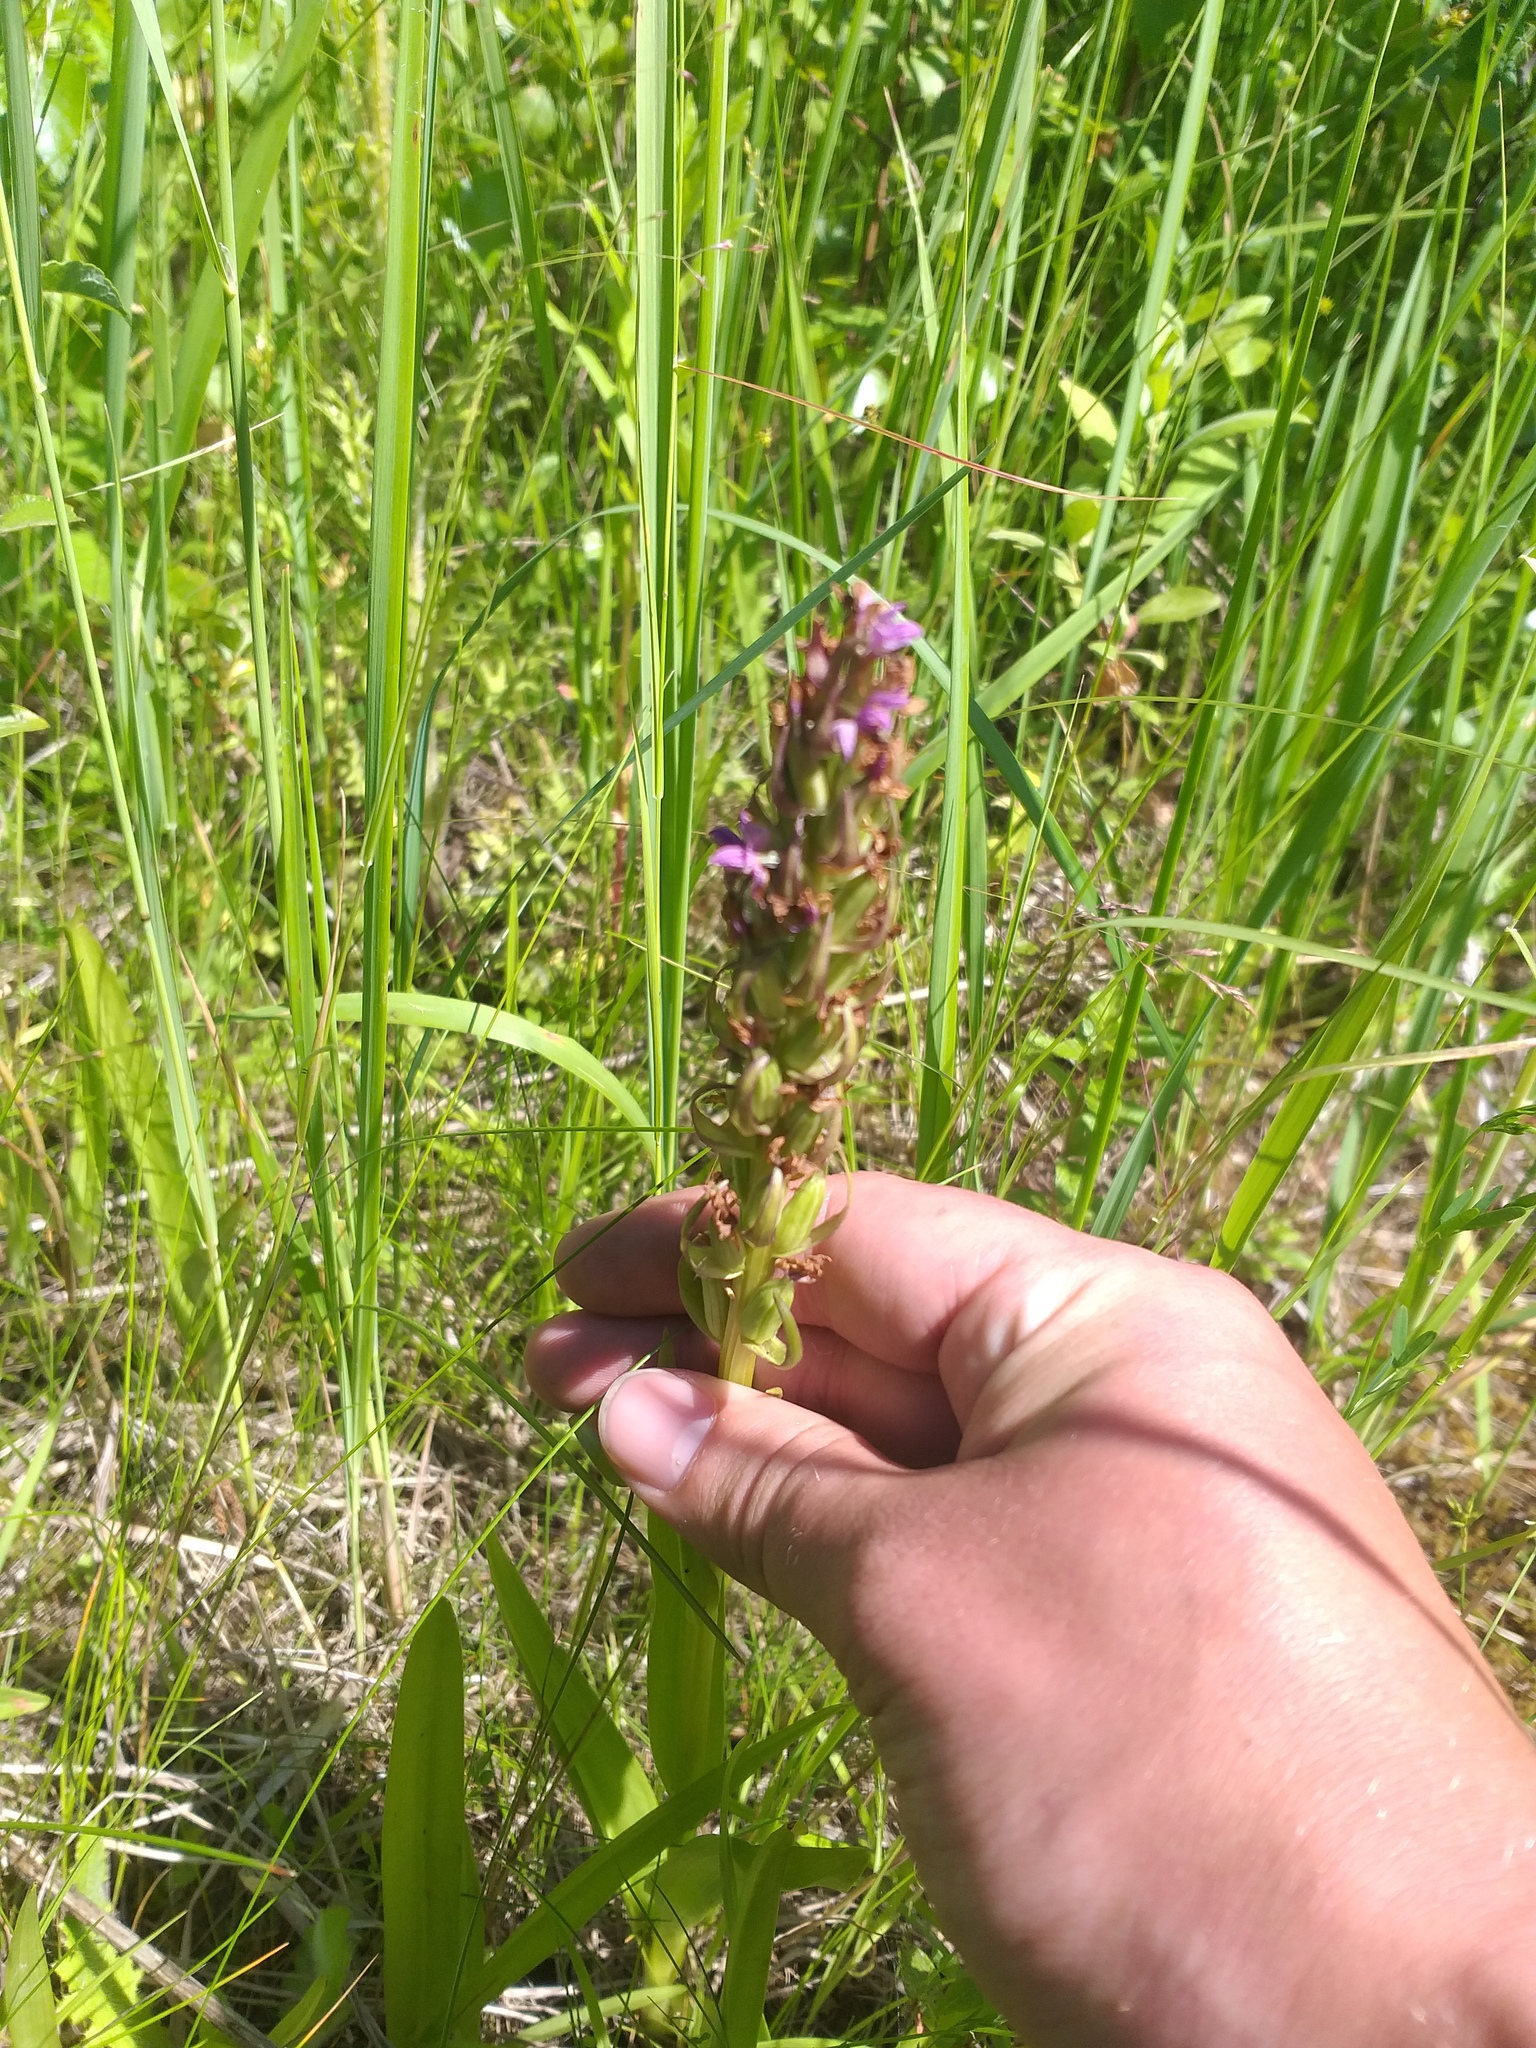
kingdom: Plantae
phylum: Tracheophyta
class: Liliopsida
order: Asparagales
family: Orchidaceae
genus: Dactylorhiza
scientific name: Dactylorhiza incarnata
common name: Early marsh-orchid
